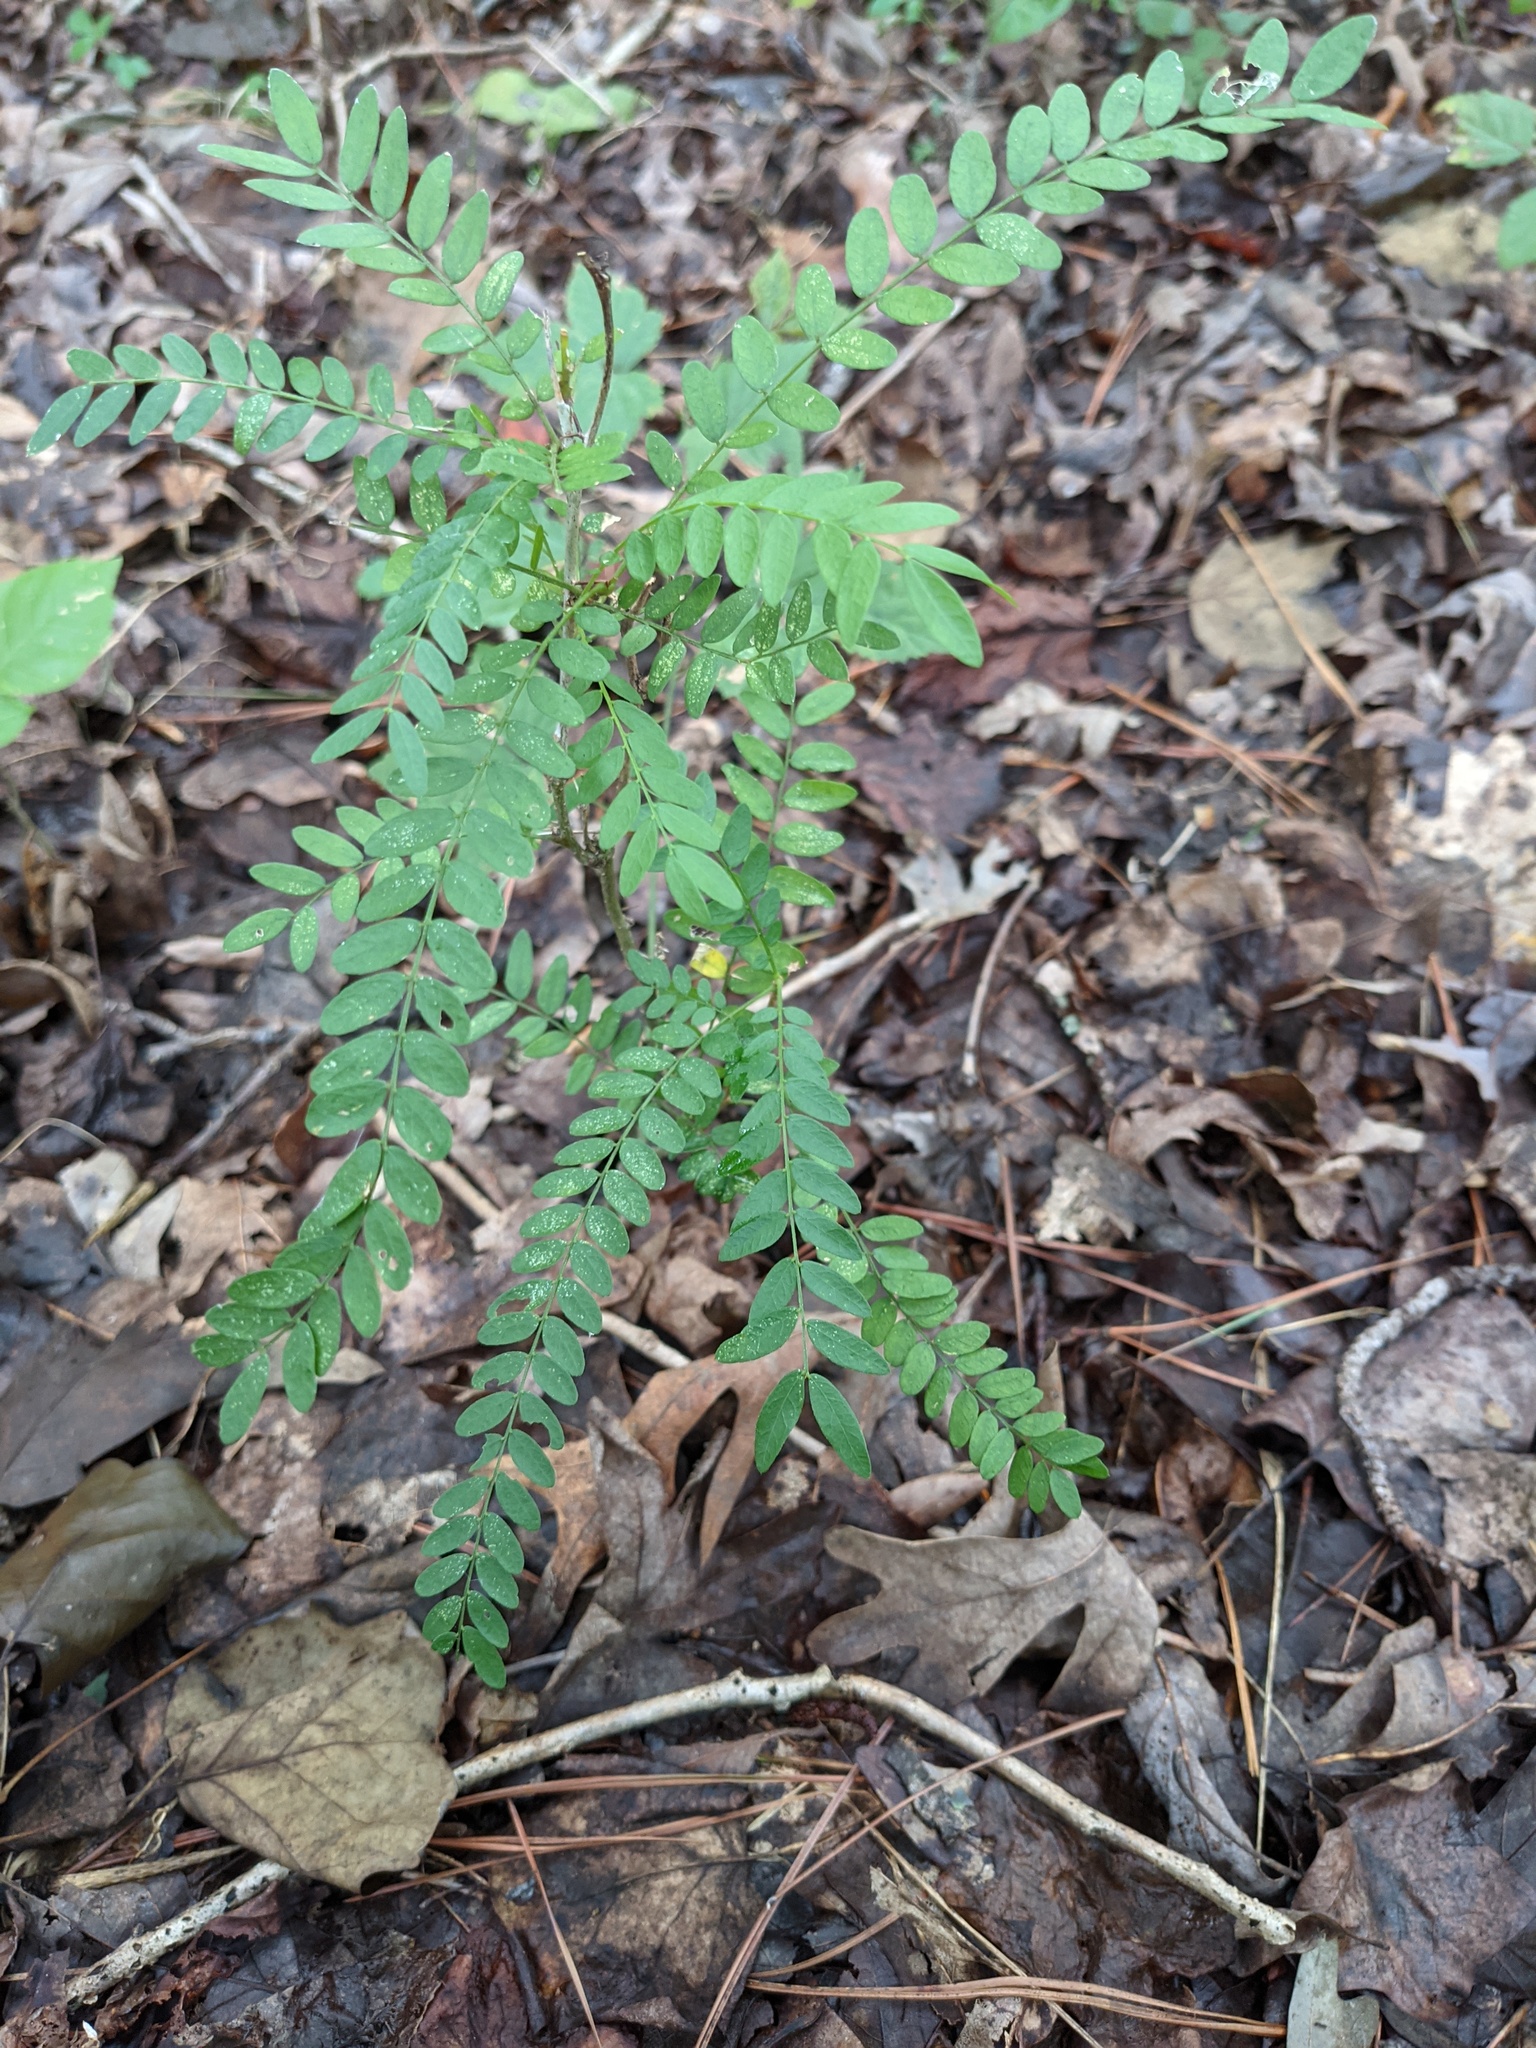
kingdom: Plantae
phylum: Tracheophyta
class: Magnoliopsida
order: Fabales
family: Fabaceae
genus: Gleditsia
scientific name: Gleditsia triacanthos
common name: Common honeylocust
